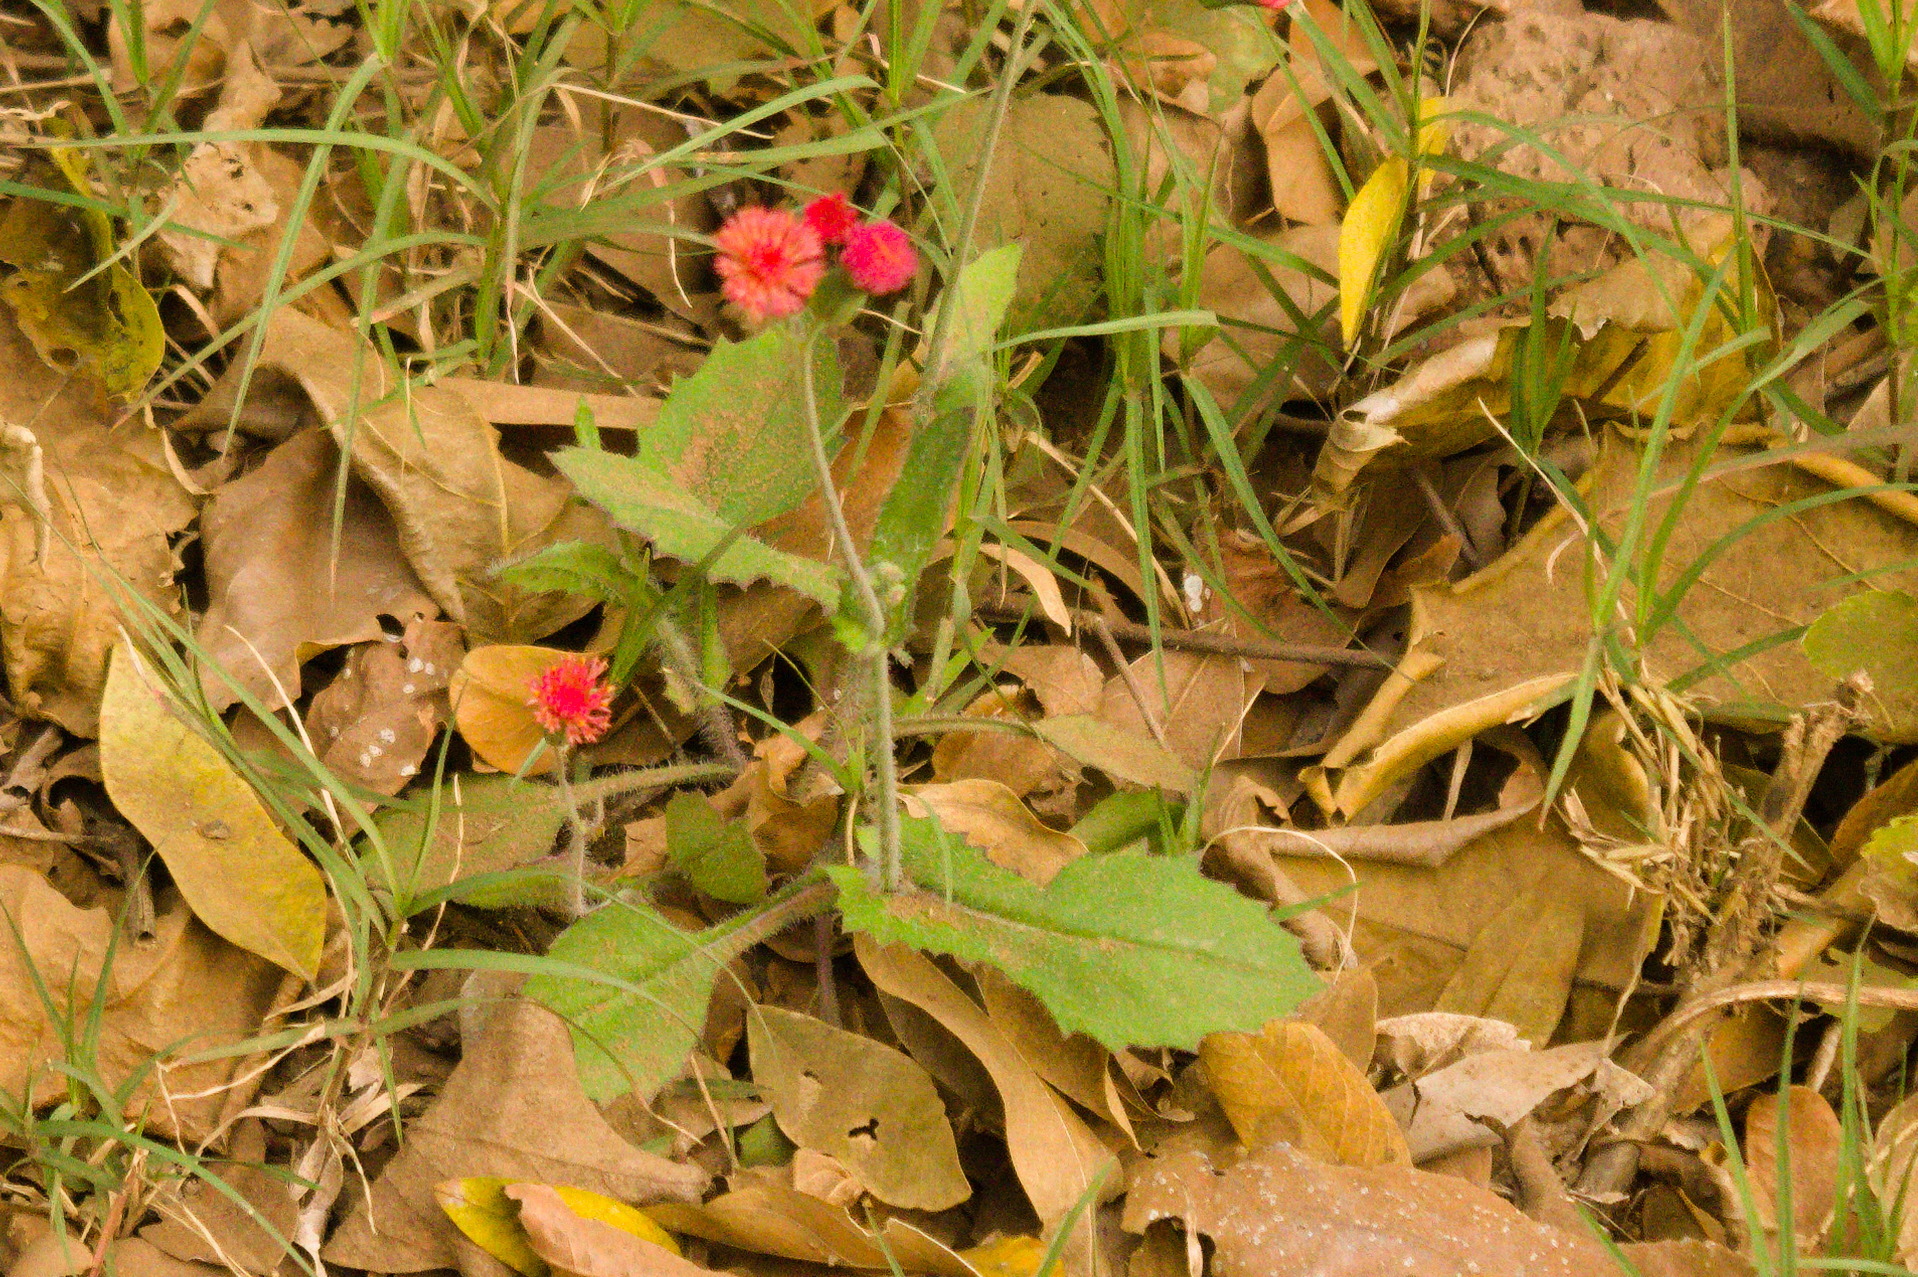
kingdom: Plantae
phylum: Tracheophyta
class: Magnoliopsida
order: Asterales
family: Asteraceae
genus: Emilia
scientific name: Emilia fosbergii
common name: Florida tasselflower
